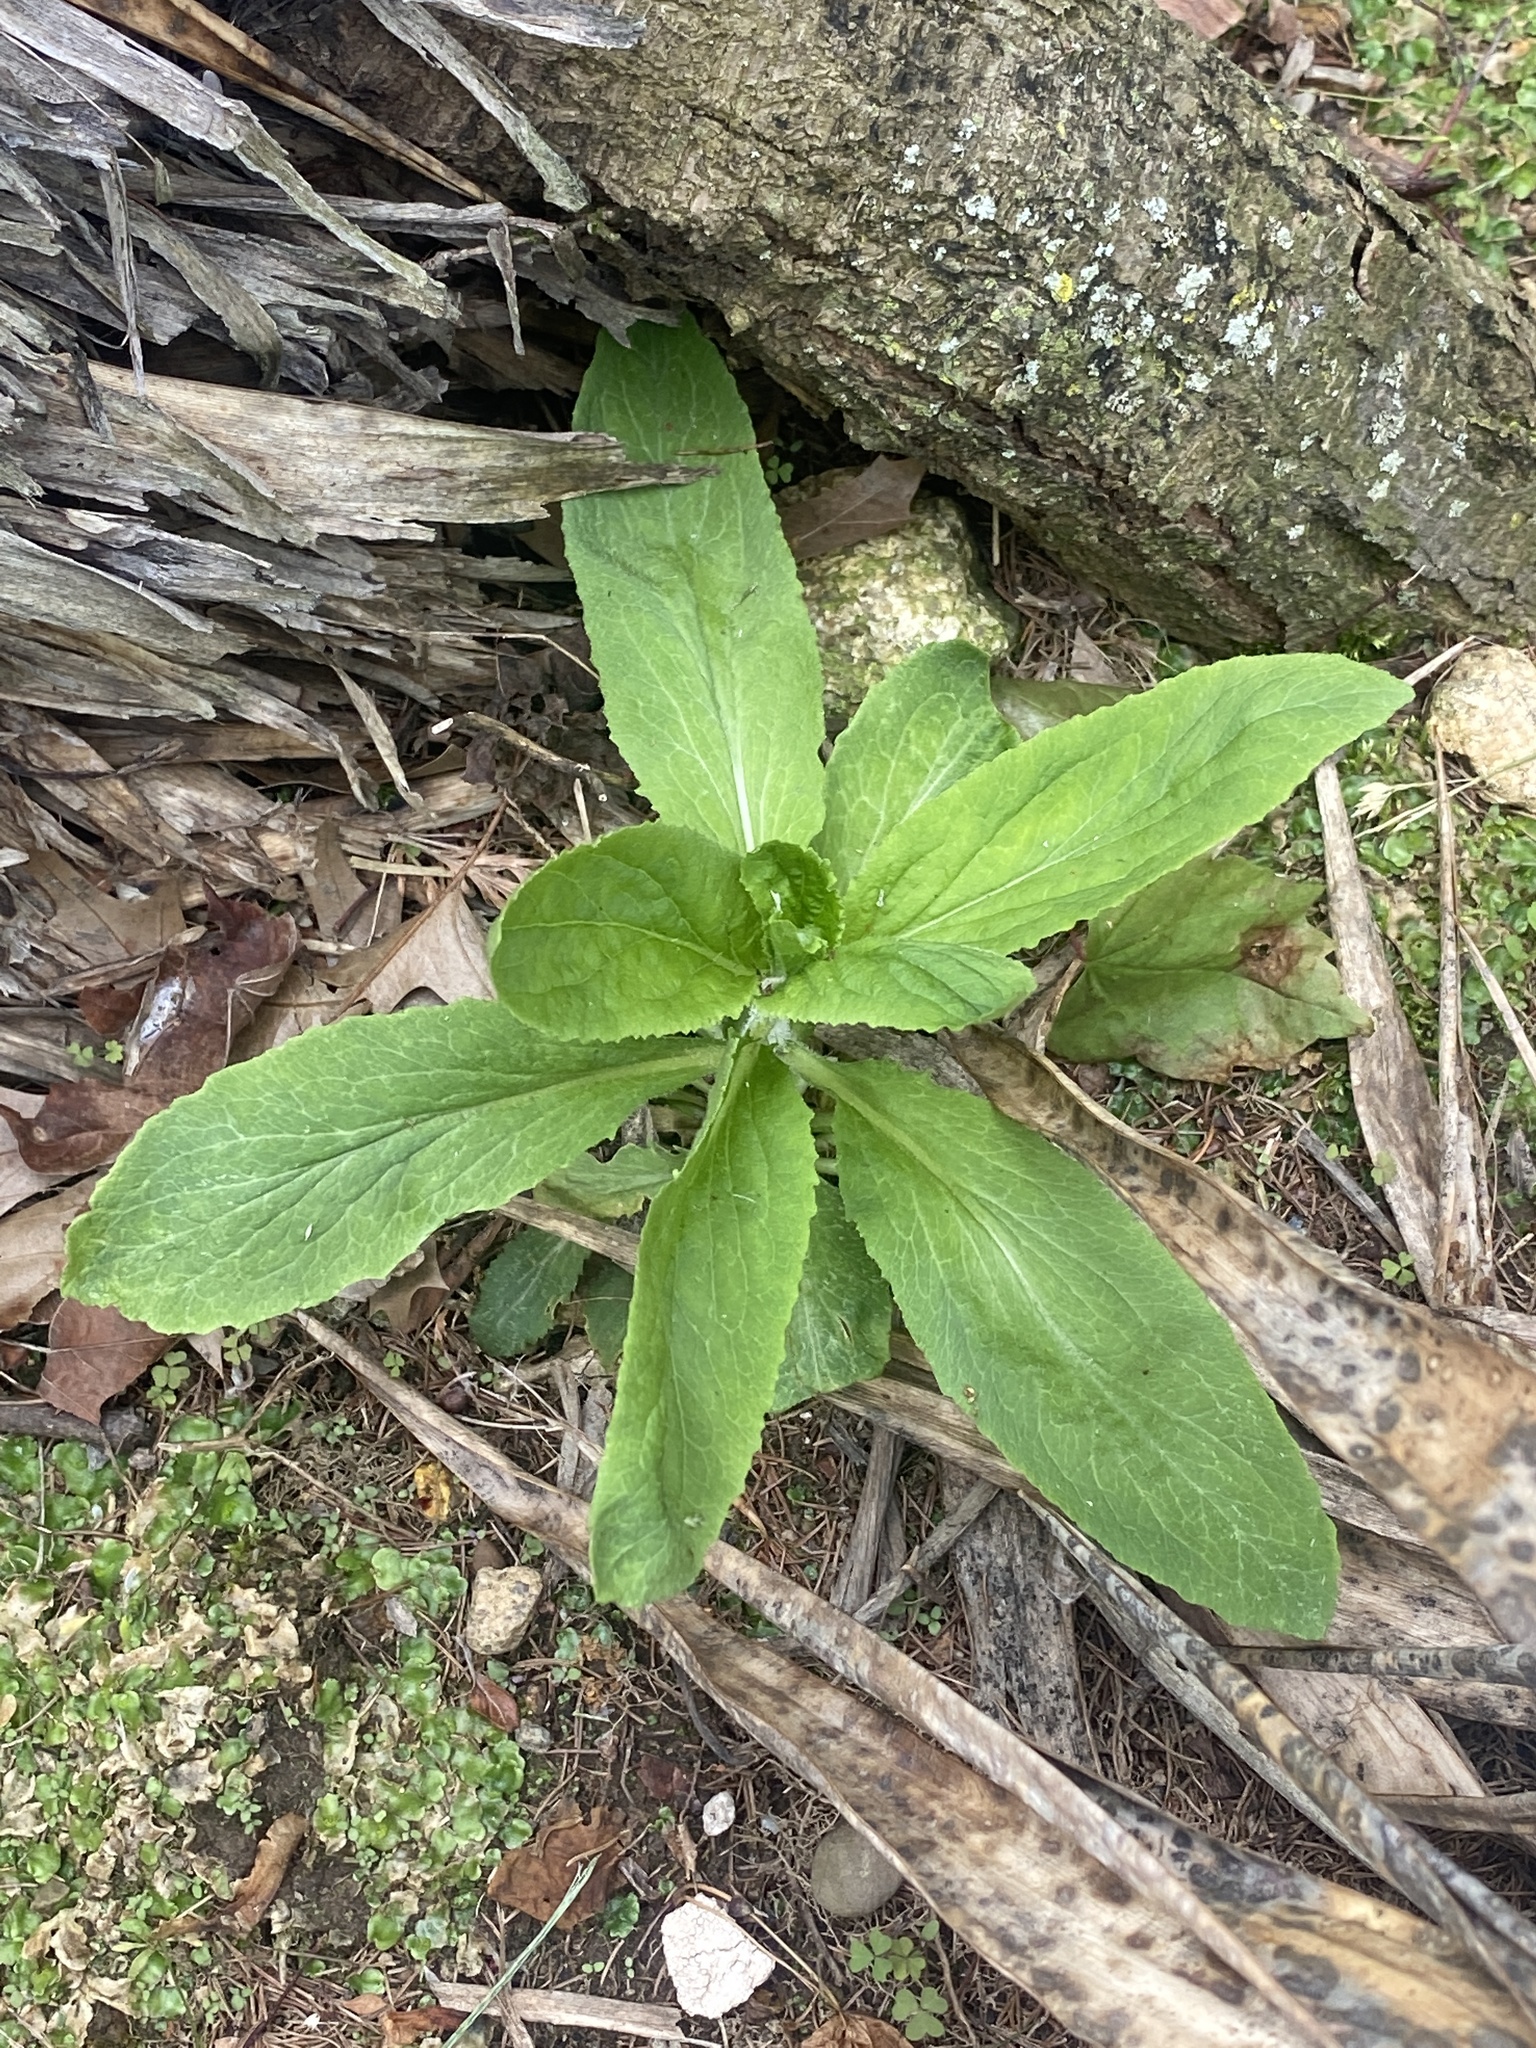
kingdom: Plantae
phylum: Tracheophyta
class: Magnoliopsida
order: Asterales
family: Campanulaceae
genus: Lobelia
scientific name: Lobelia inflata
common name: Indian tobacco
